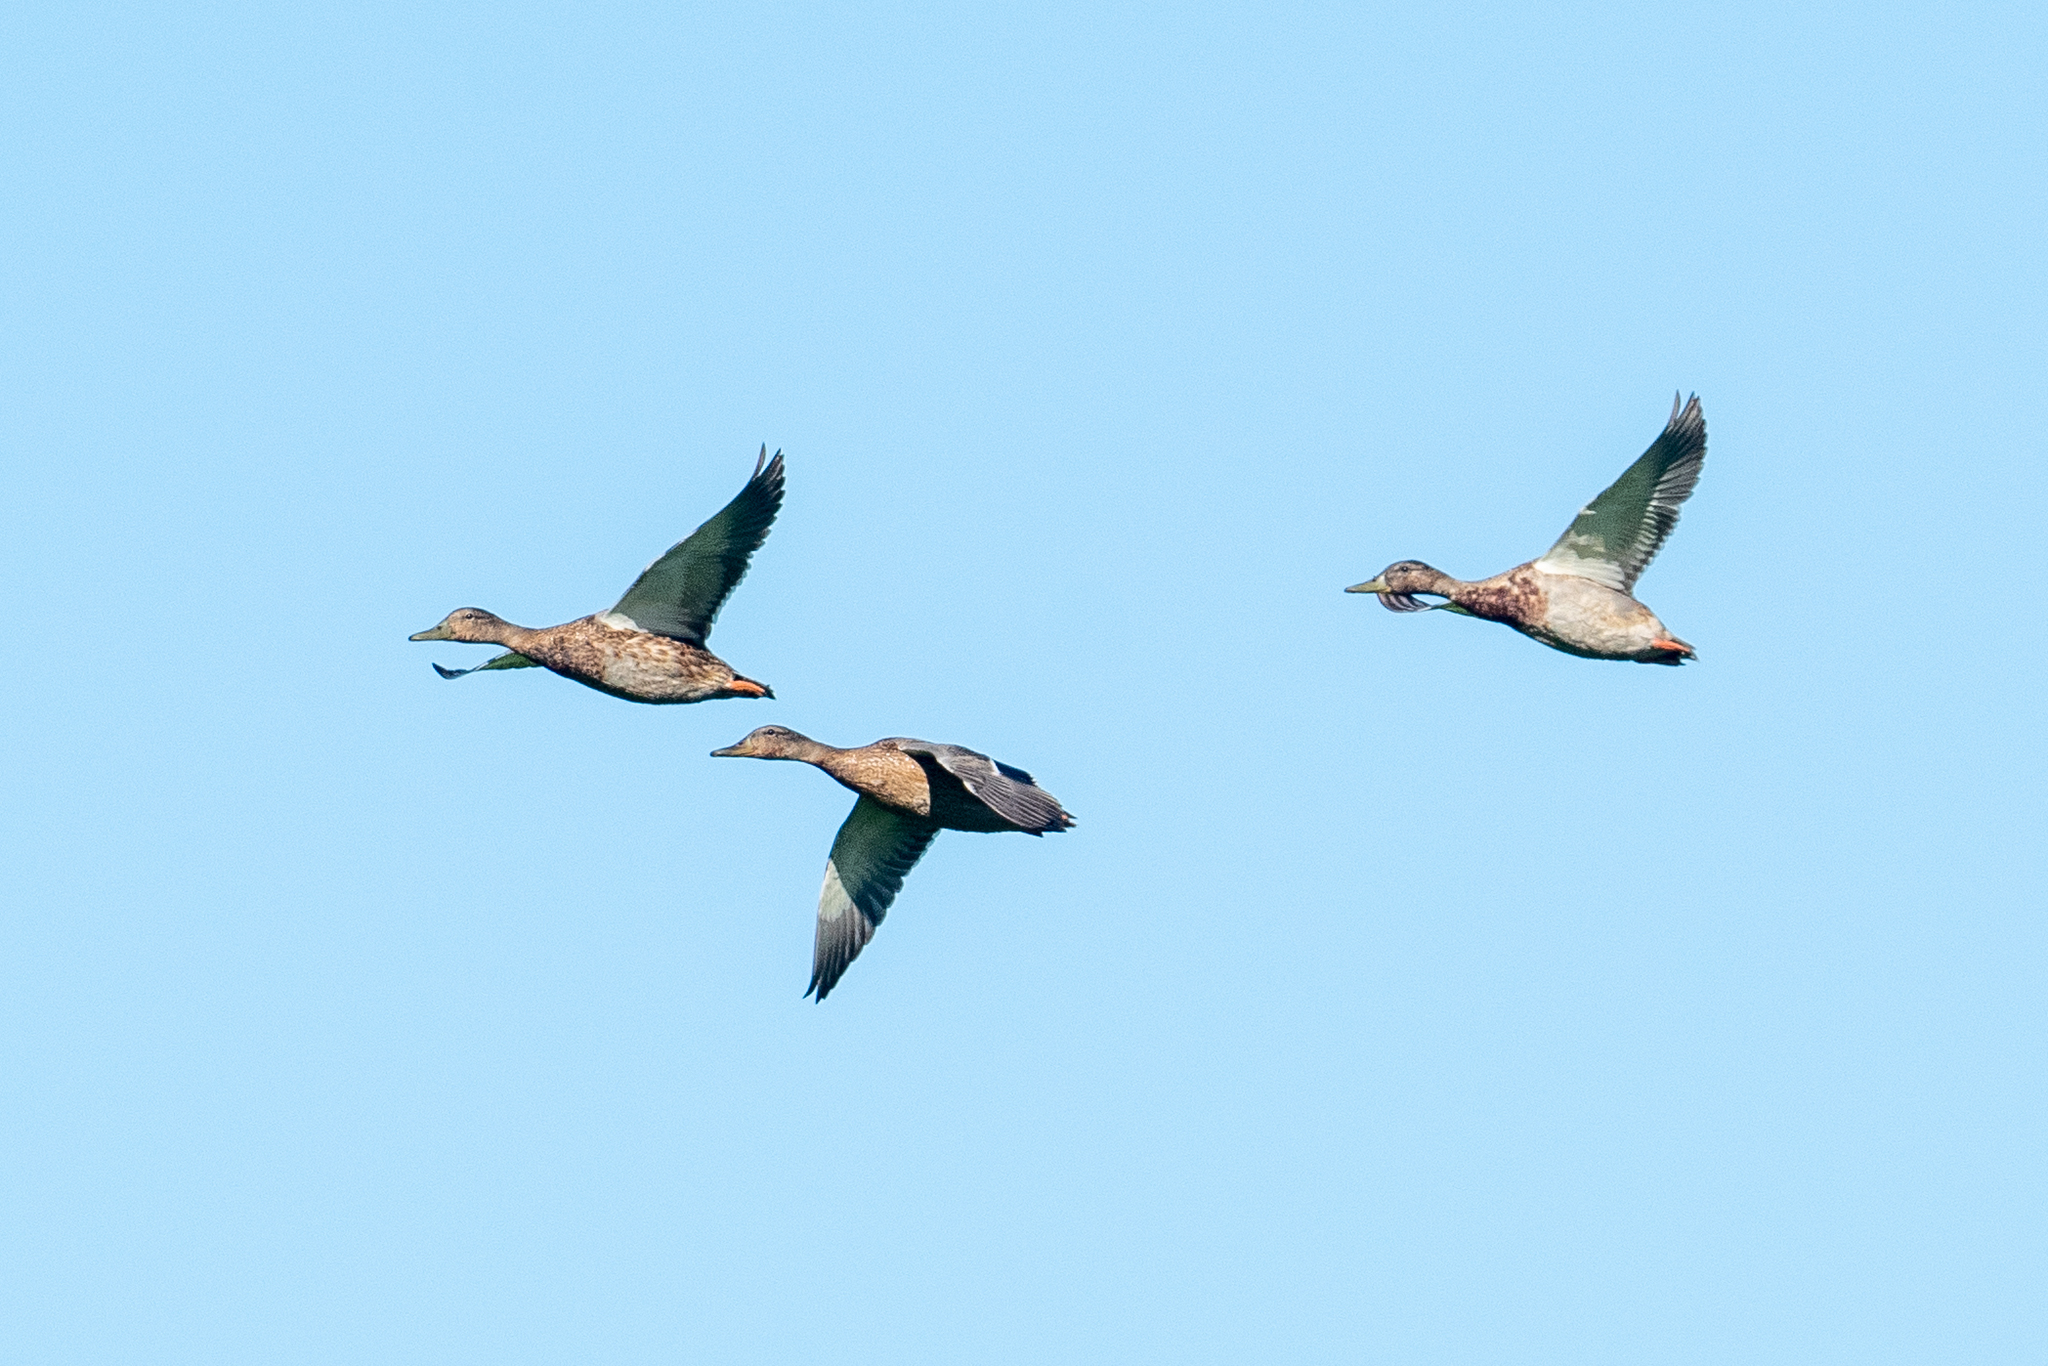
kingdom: Animalia
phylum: Chordata
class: Aves
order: Anseriformes
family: Anatidae
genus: Anas
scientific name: Anas platyrhynchos
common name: Mallard
